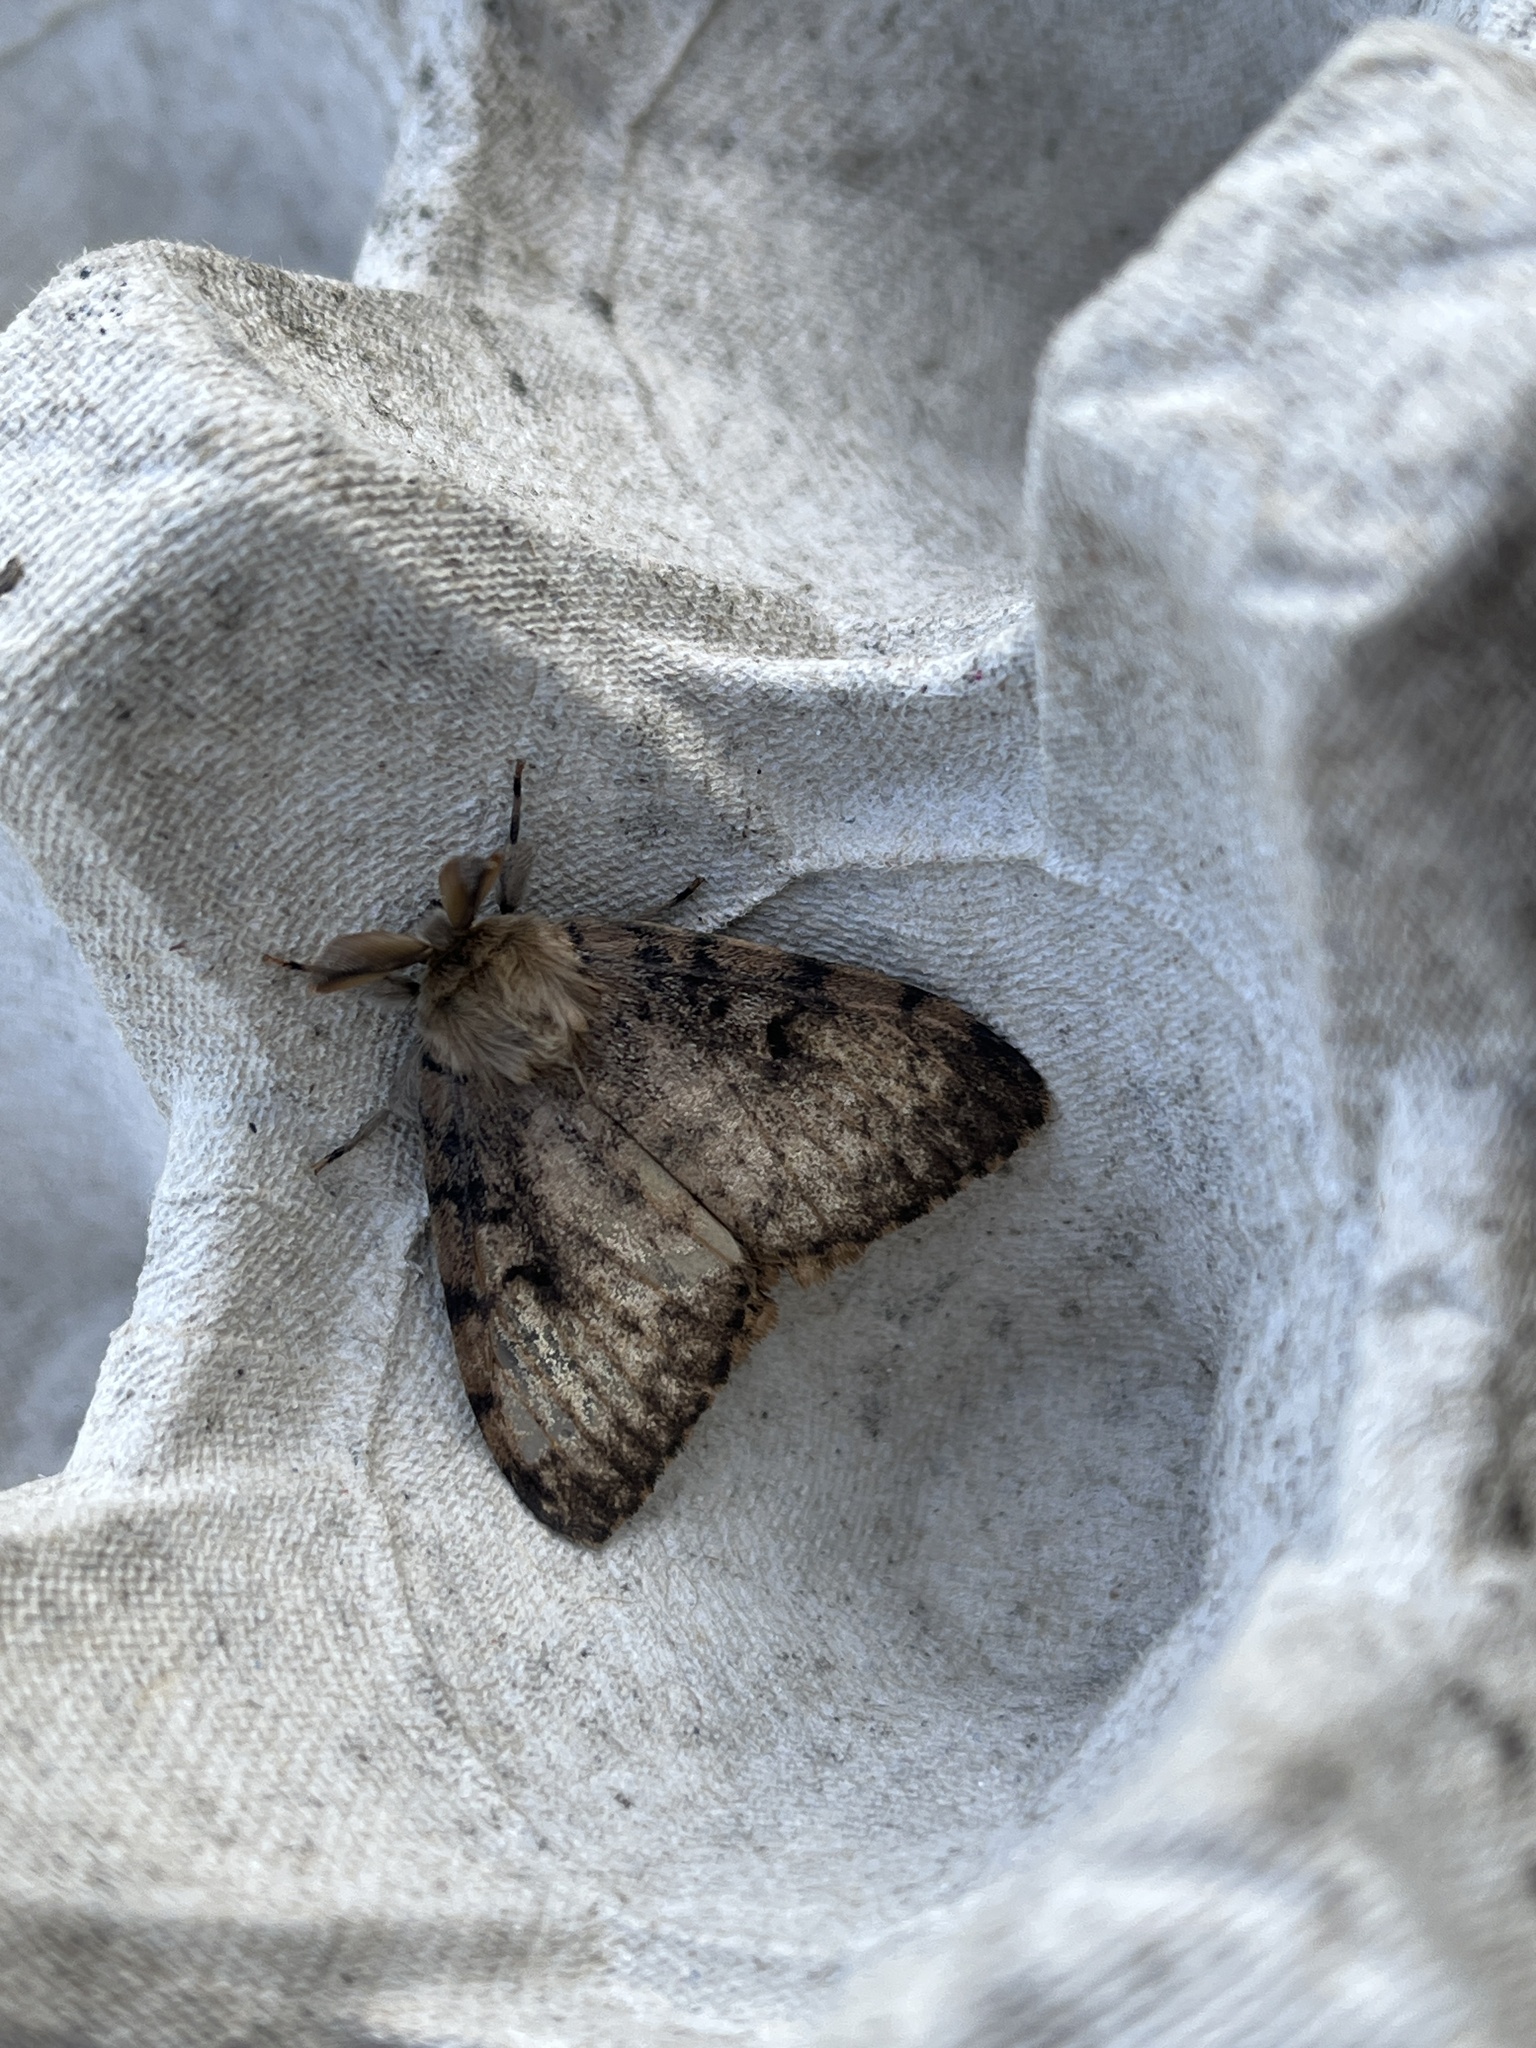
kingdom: Animalia
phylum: Arthropoda
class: Insecta
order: Lepidoptera
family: Erebidae
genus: Lymantria
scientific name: Lymantria dispar
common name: Gypsy moth
